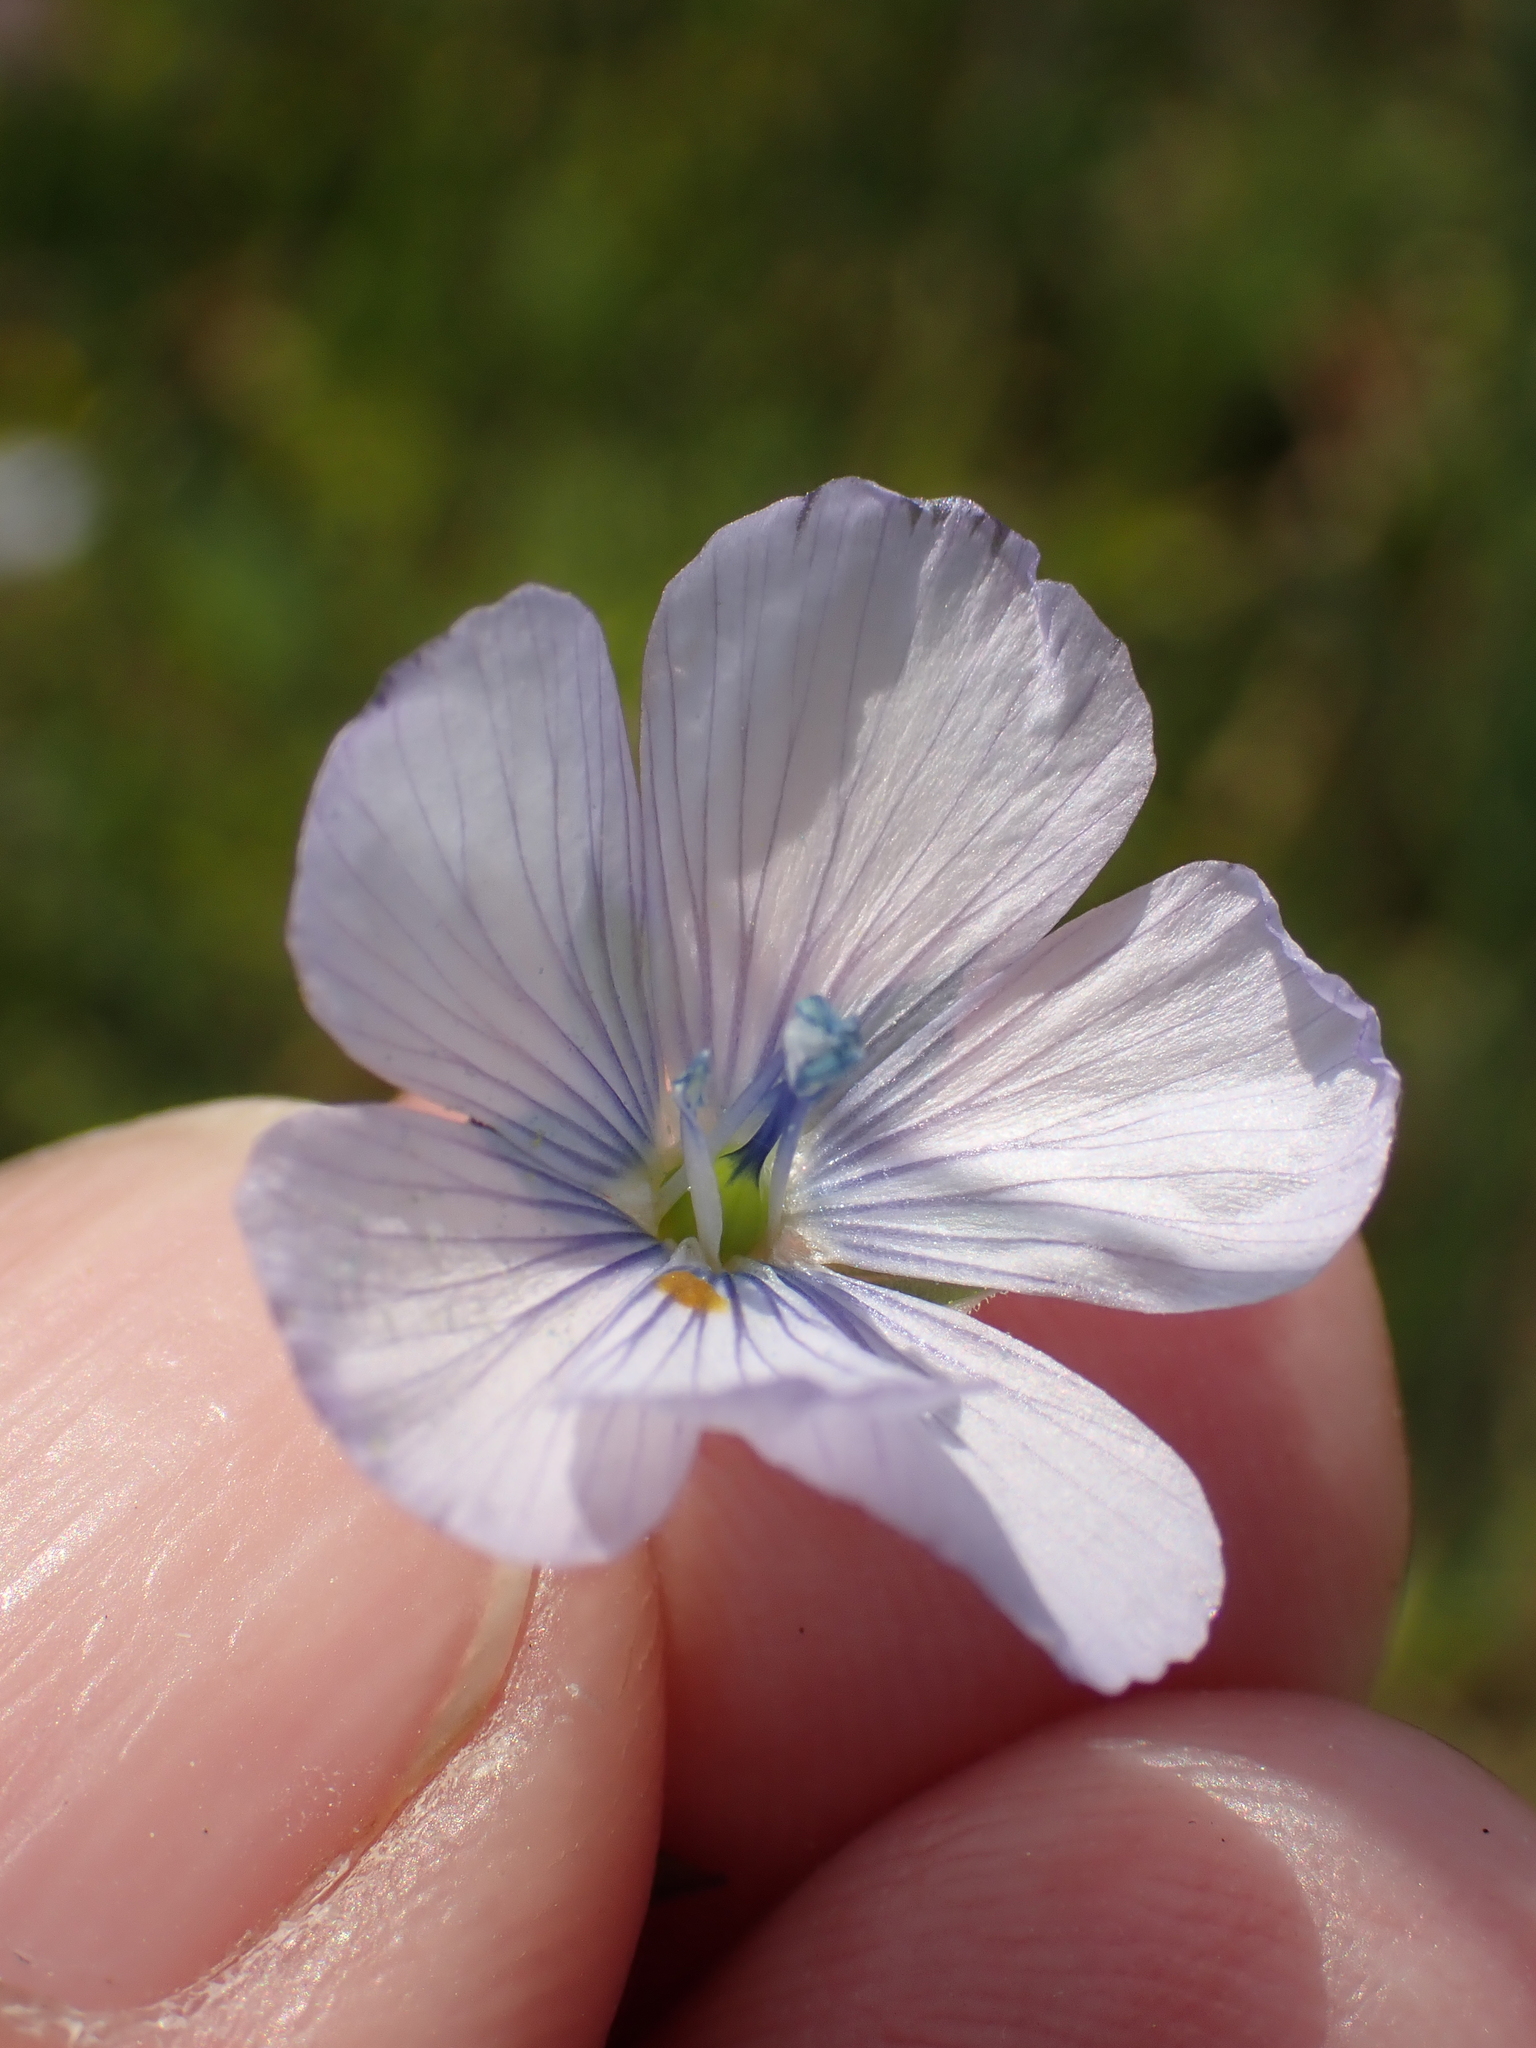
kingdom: Plantae
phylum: Tracheophyta
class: Magnoliopsida
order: Malpighiales
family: Linaceae
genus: Linum
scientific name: Linum bienne
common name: Pale flax
